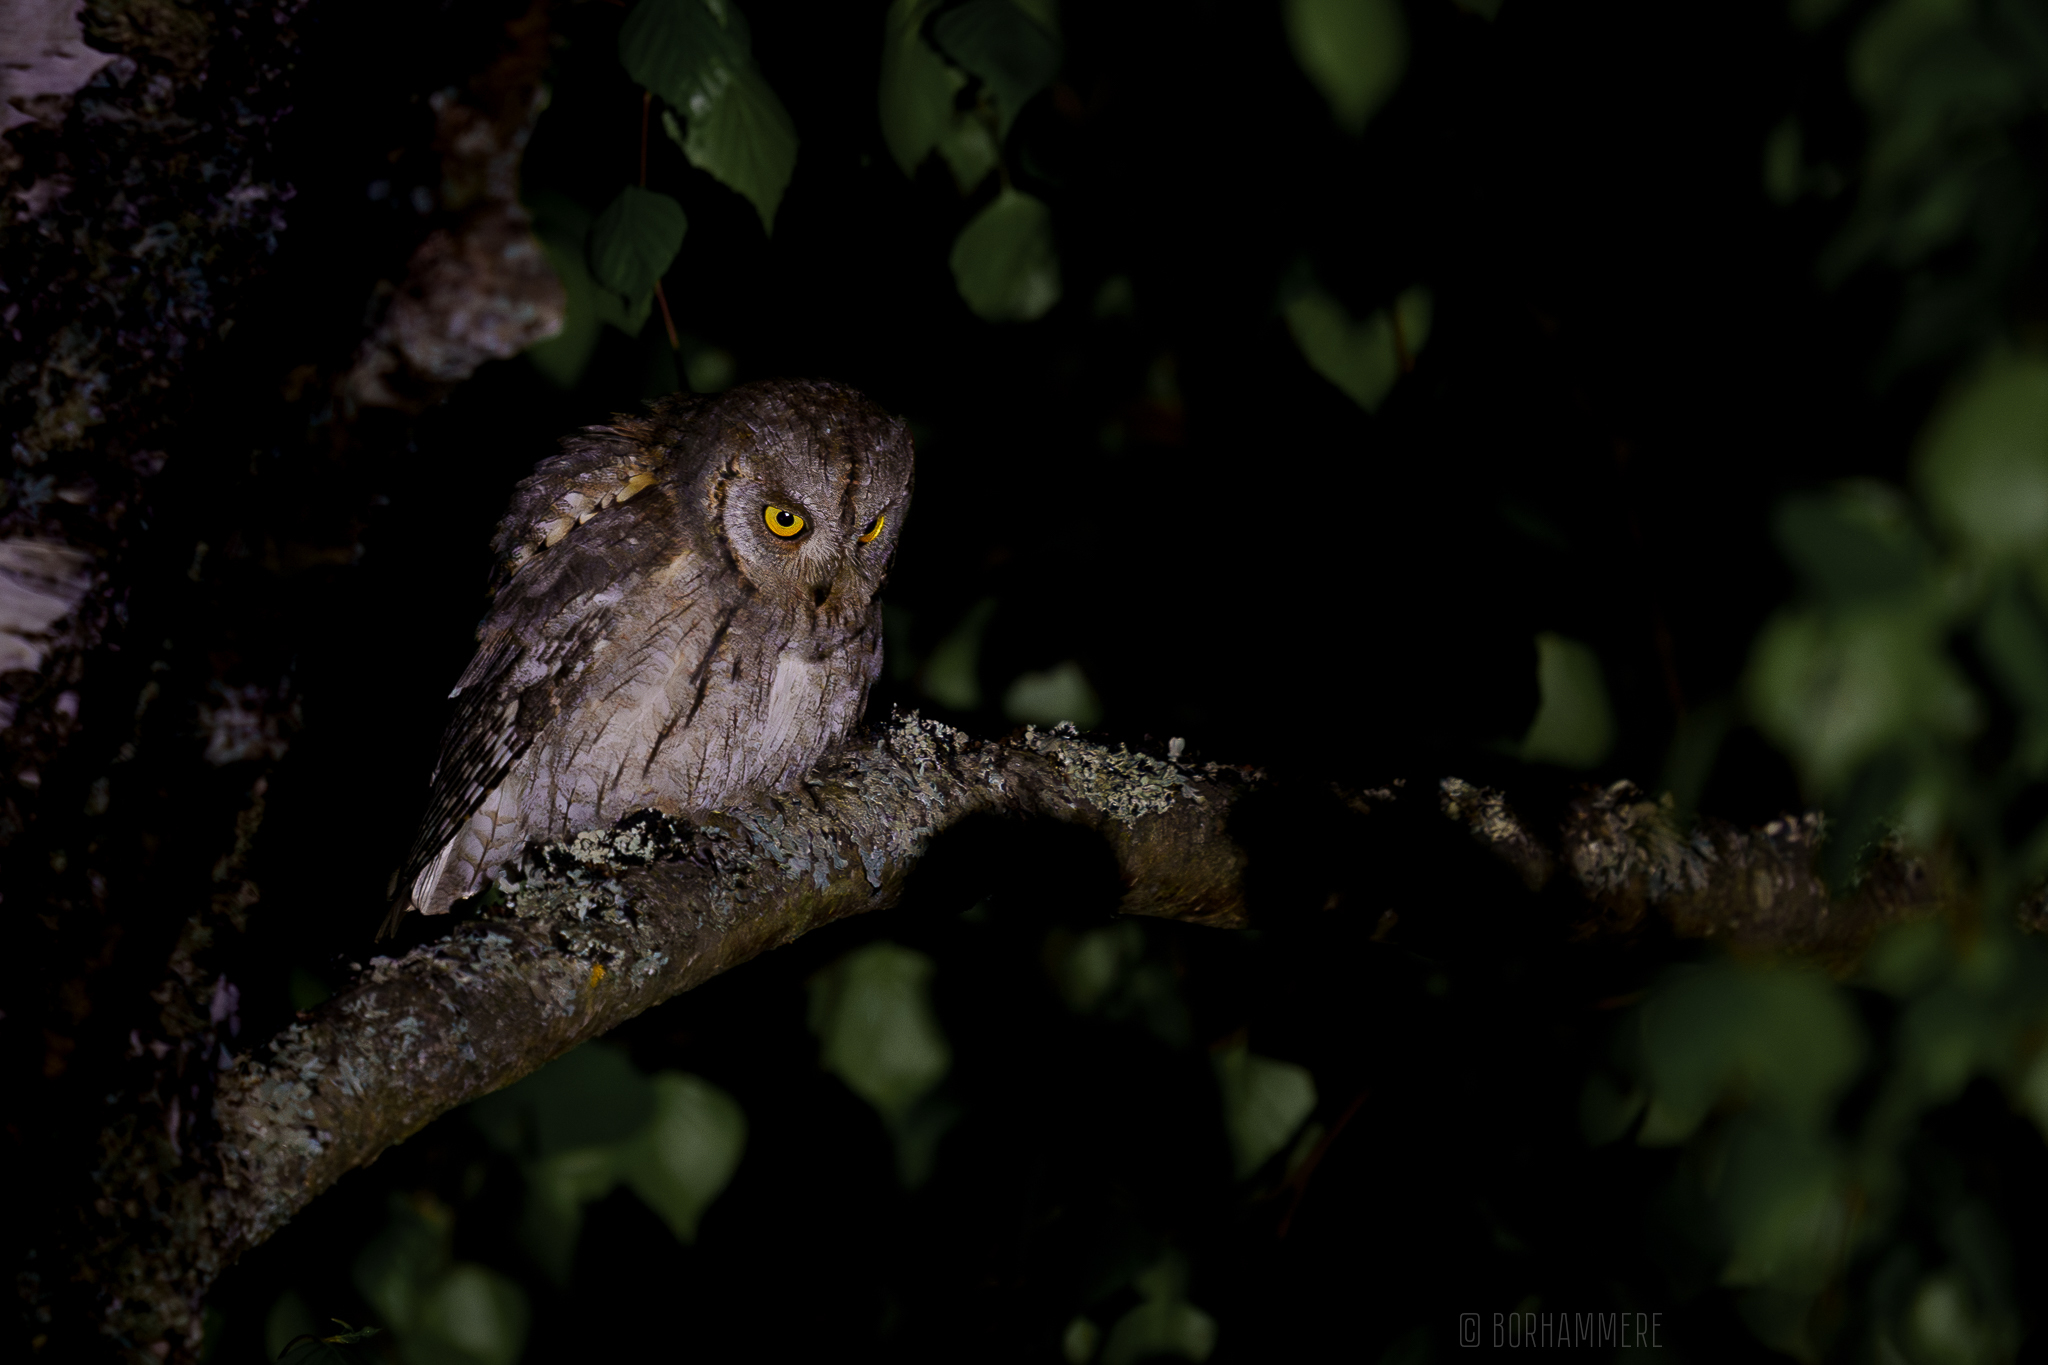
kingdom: Animalia
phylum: Chordata
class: Aves
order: Strigiformes
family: Strigidae
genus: Otus
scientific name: Otus scops
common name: Eurasian scops owl
